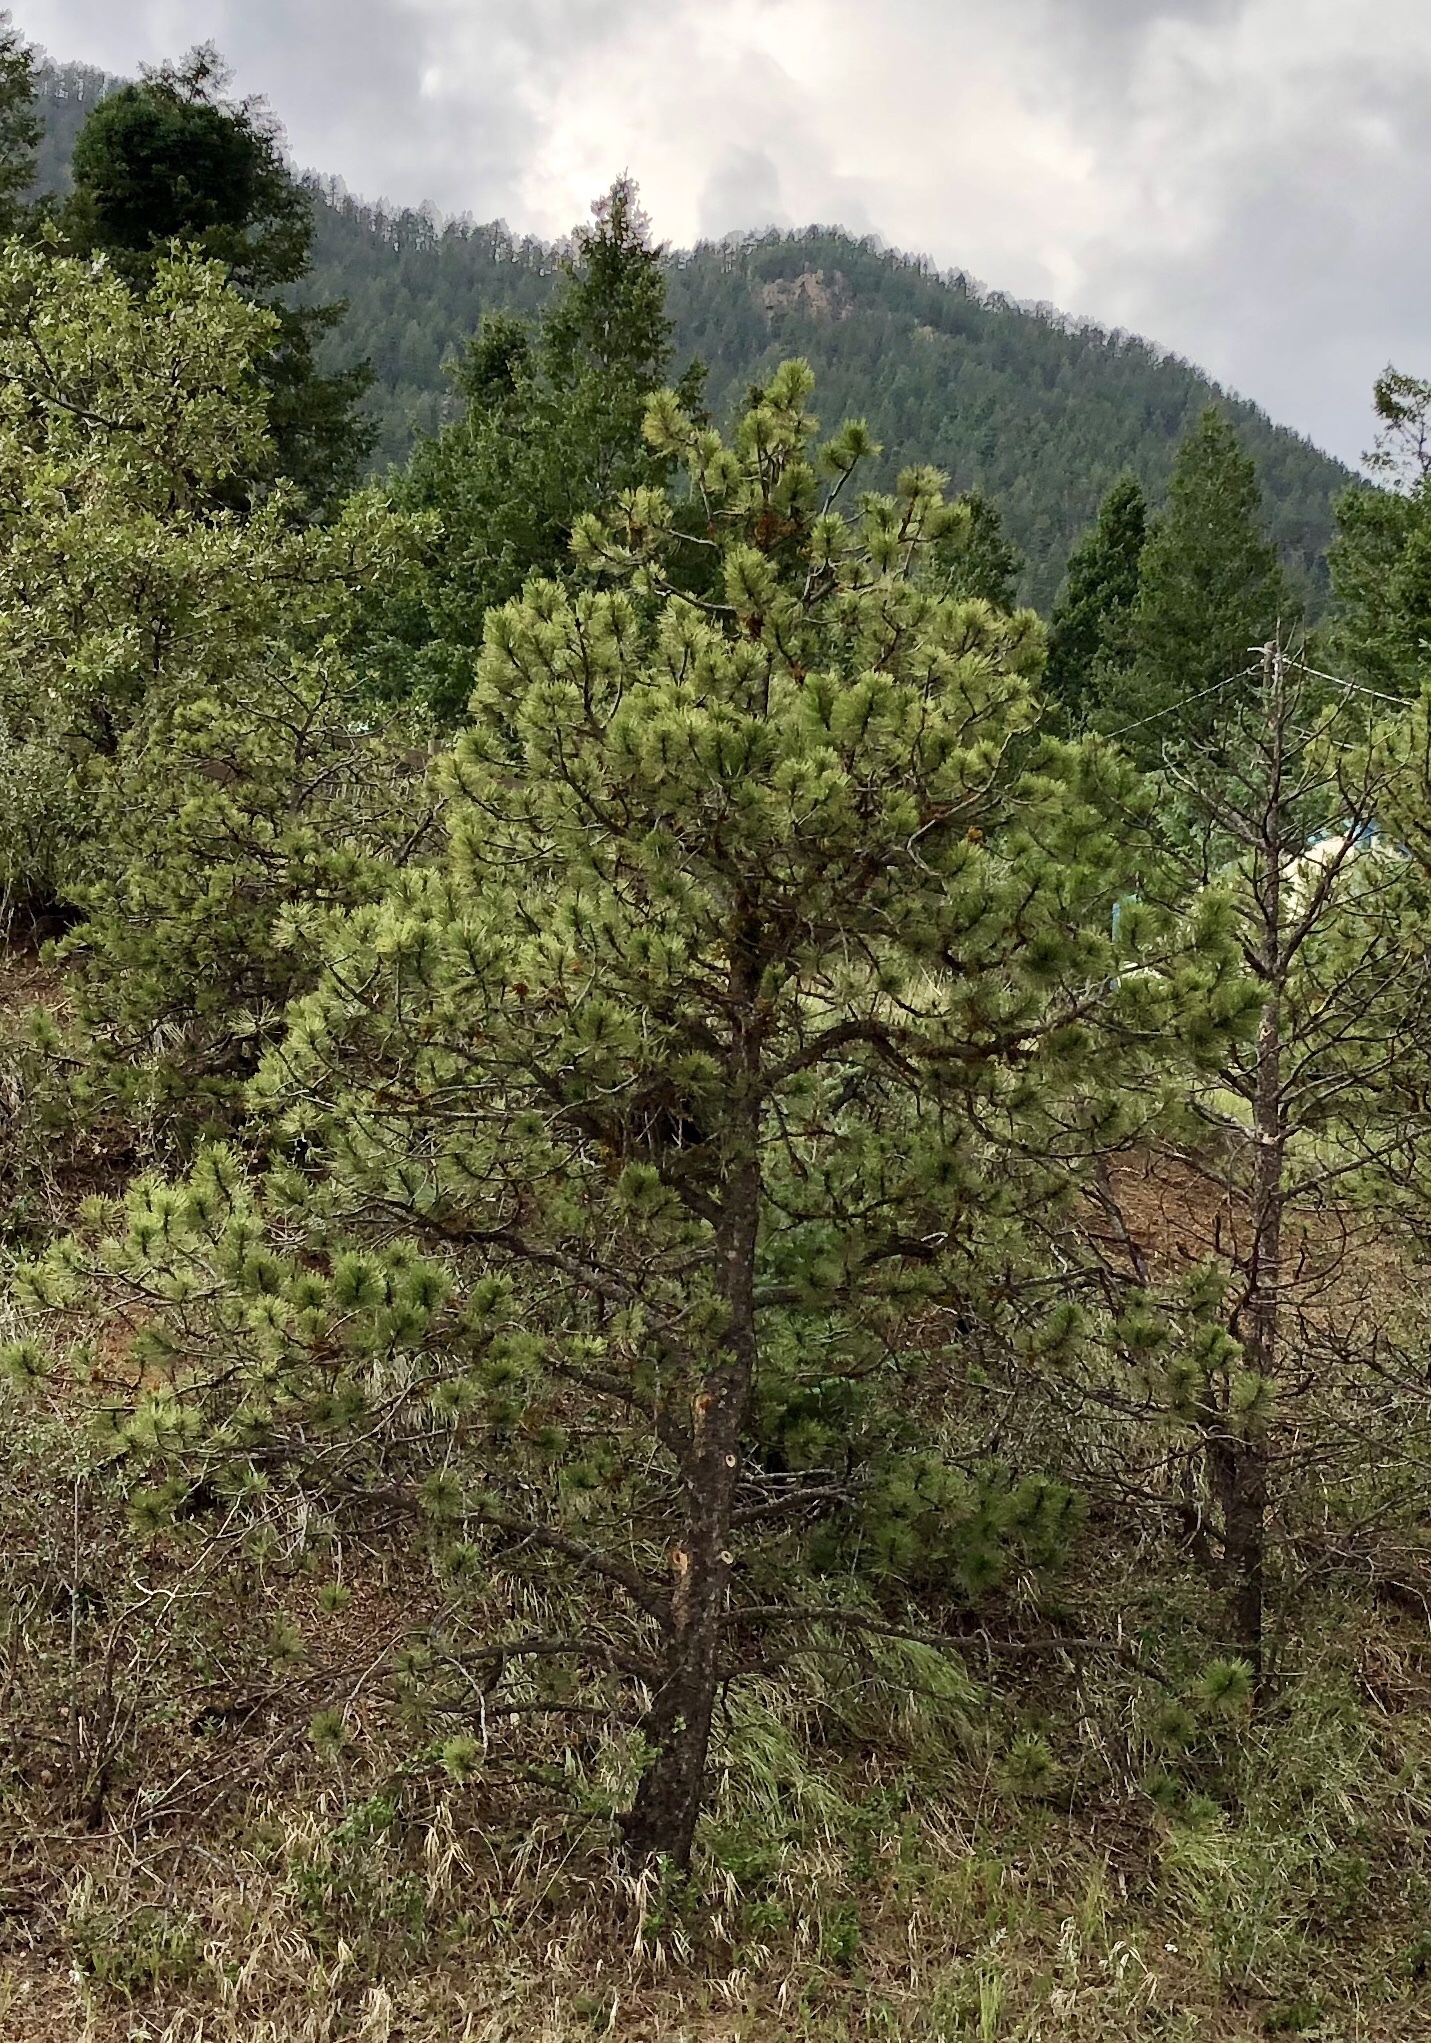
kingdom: Plantae
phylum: Tracheophyta
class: Pinopsida
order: Pinales
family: Pinaceae
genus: Pinus
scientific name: Pinus ponderosa
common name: Western yellow-pine
